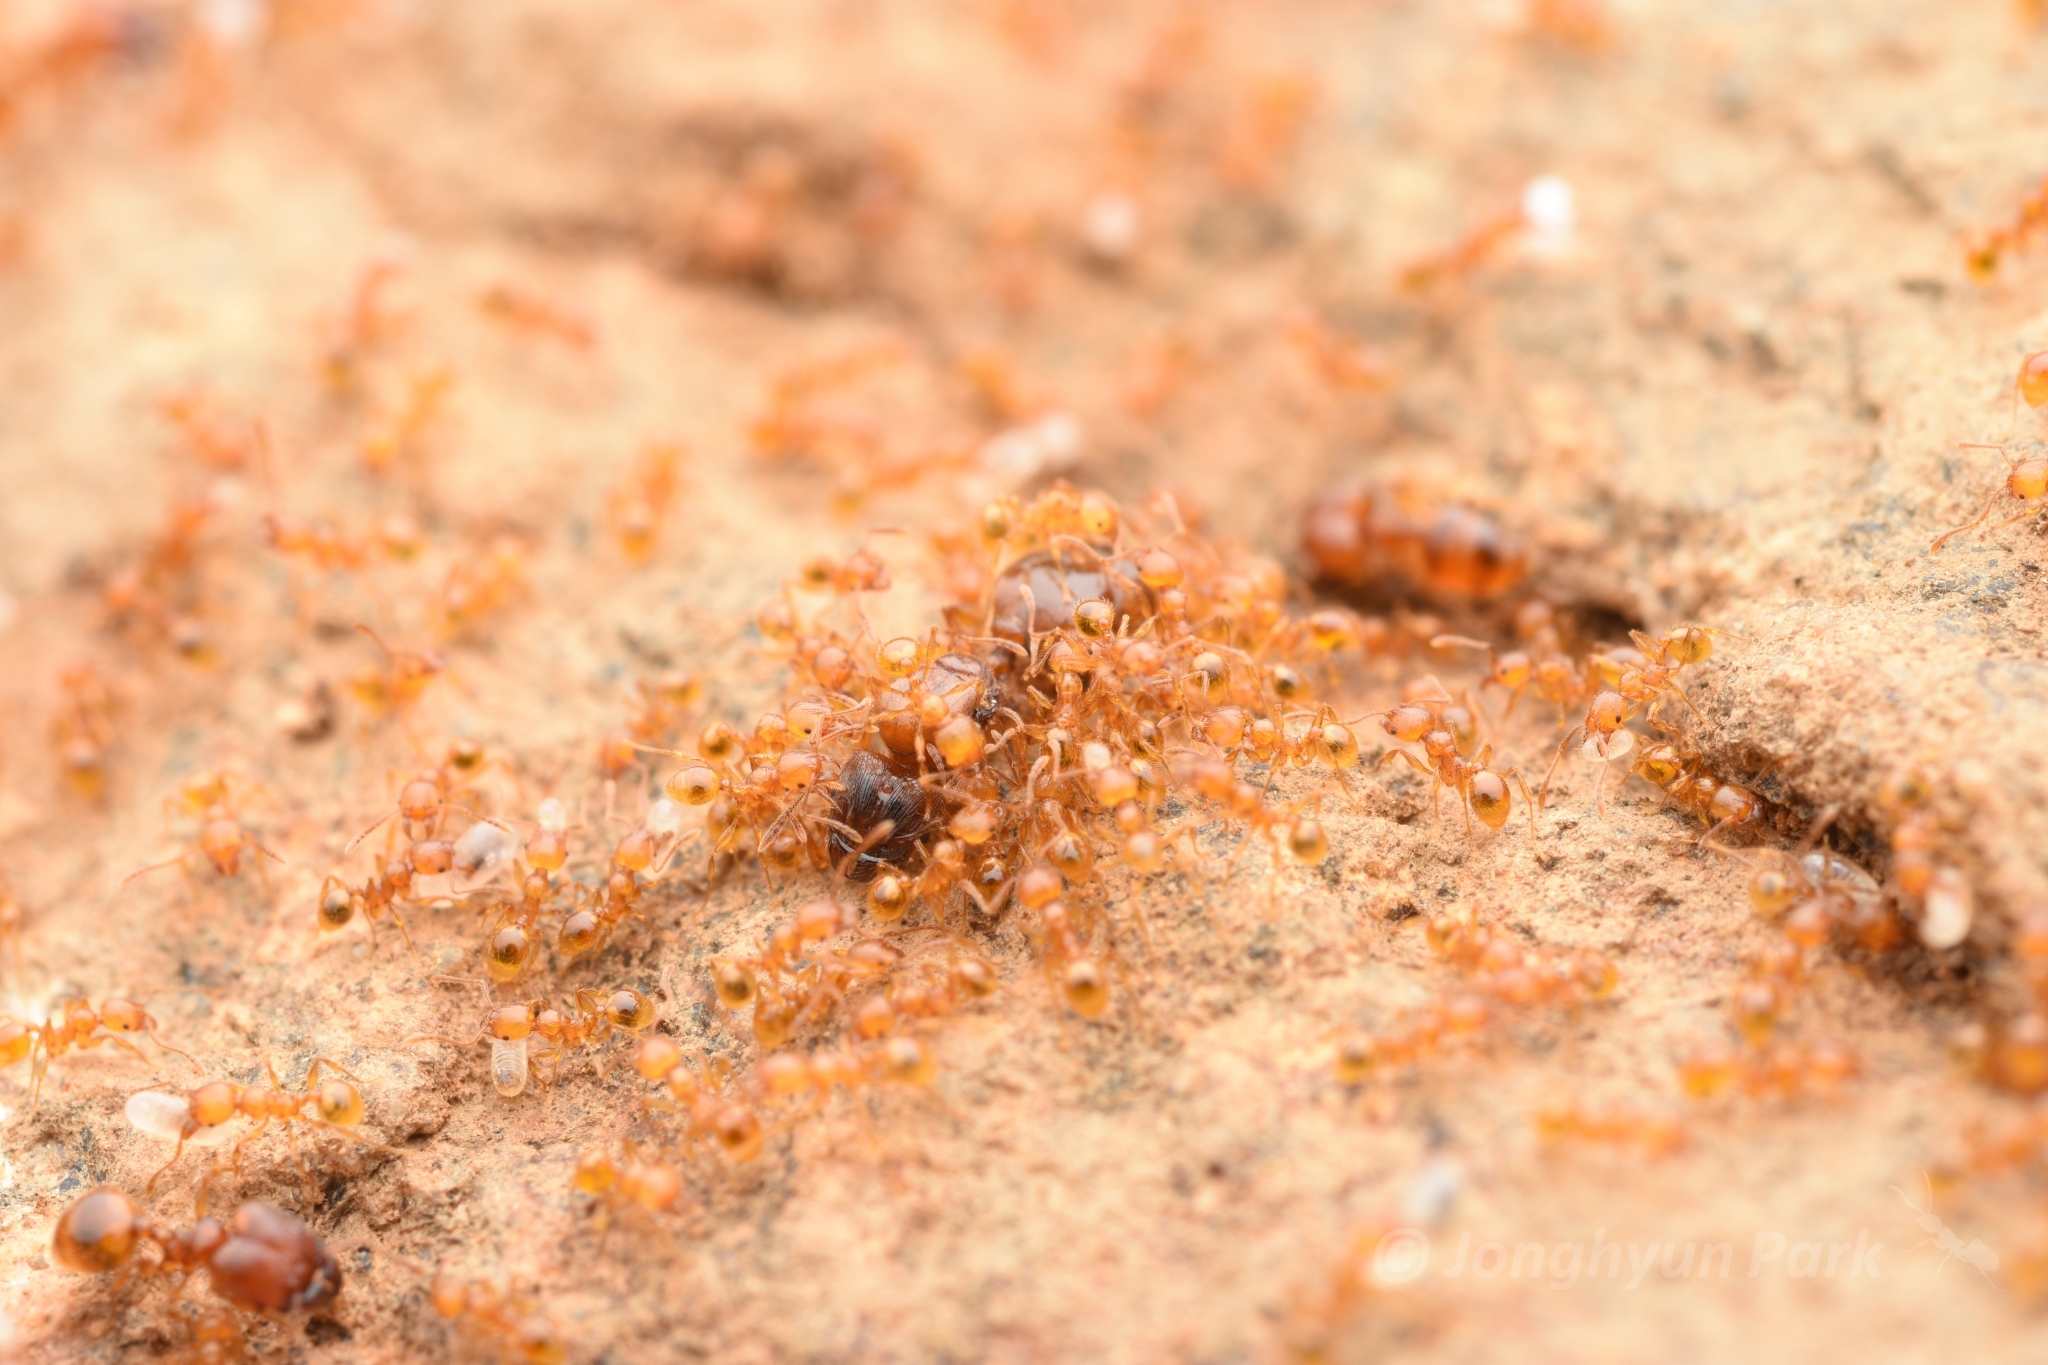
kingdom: Animalia
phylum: Arthropoda
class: Insecta
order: Hymenoptera
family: Formicidae
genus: Pheidole
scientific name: Pheidole fervida
